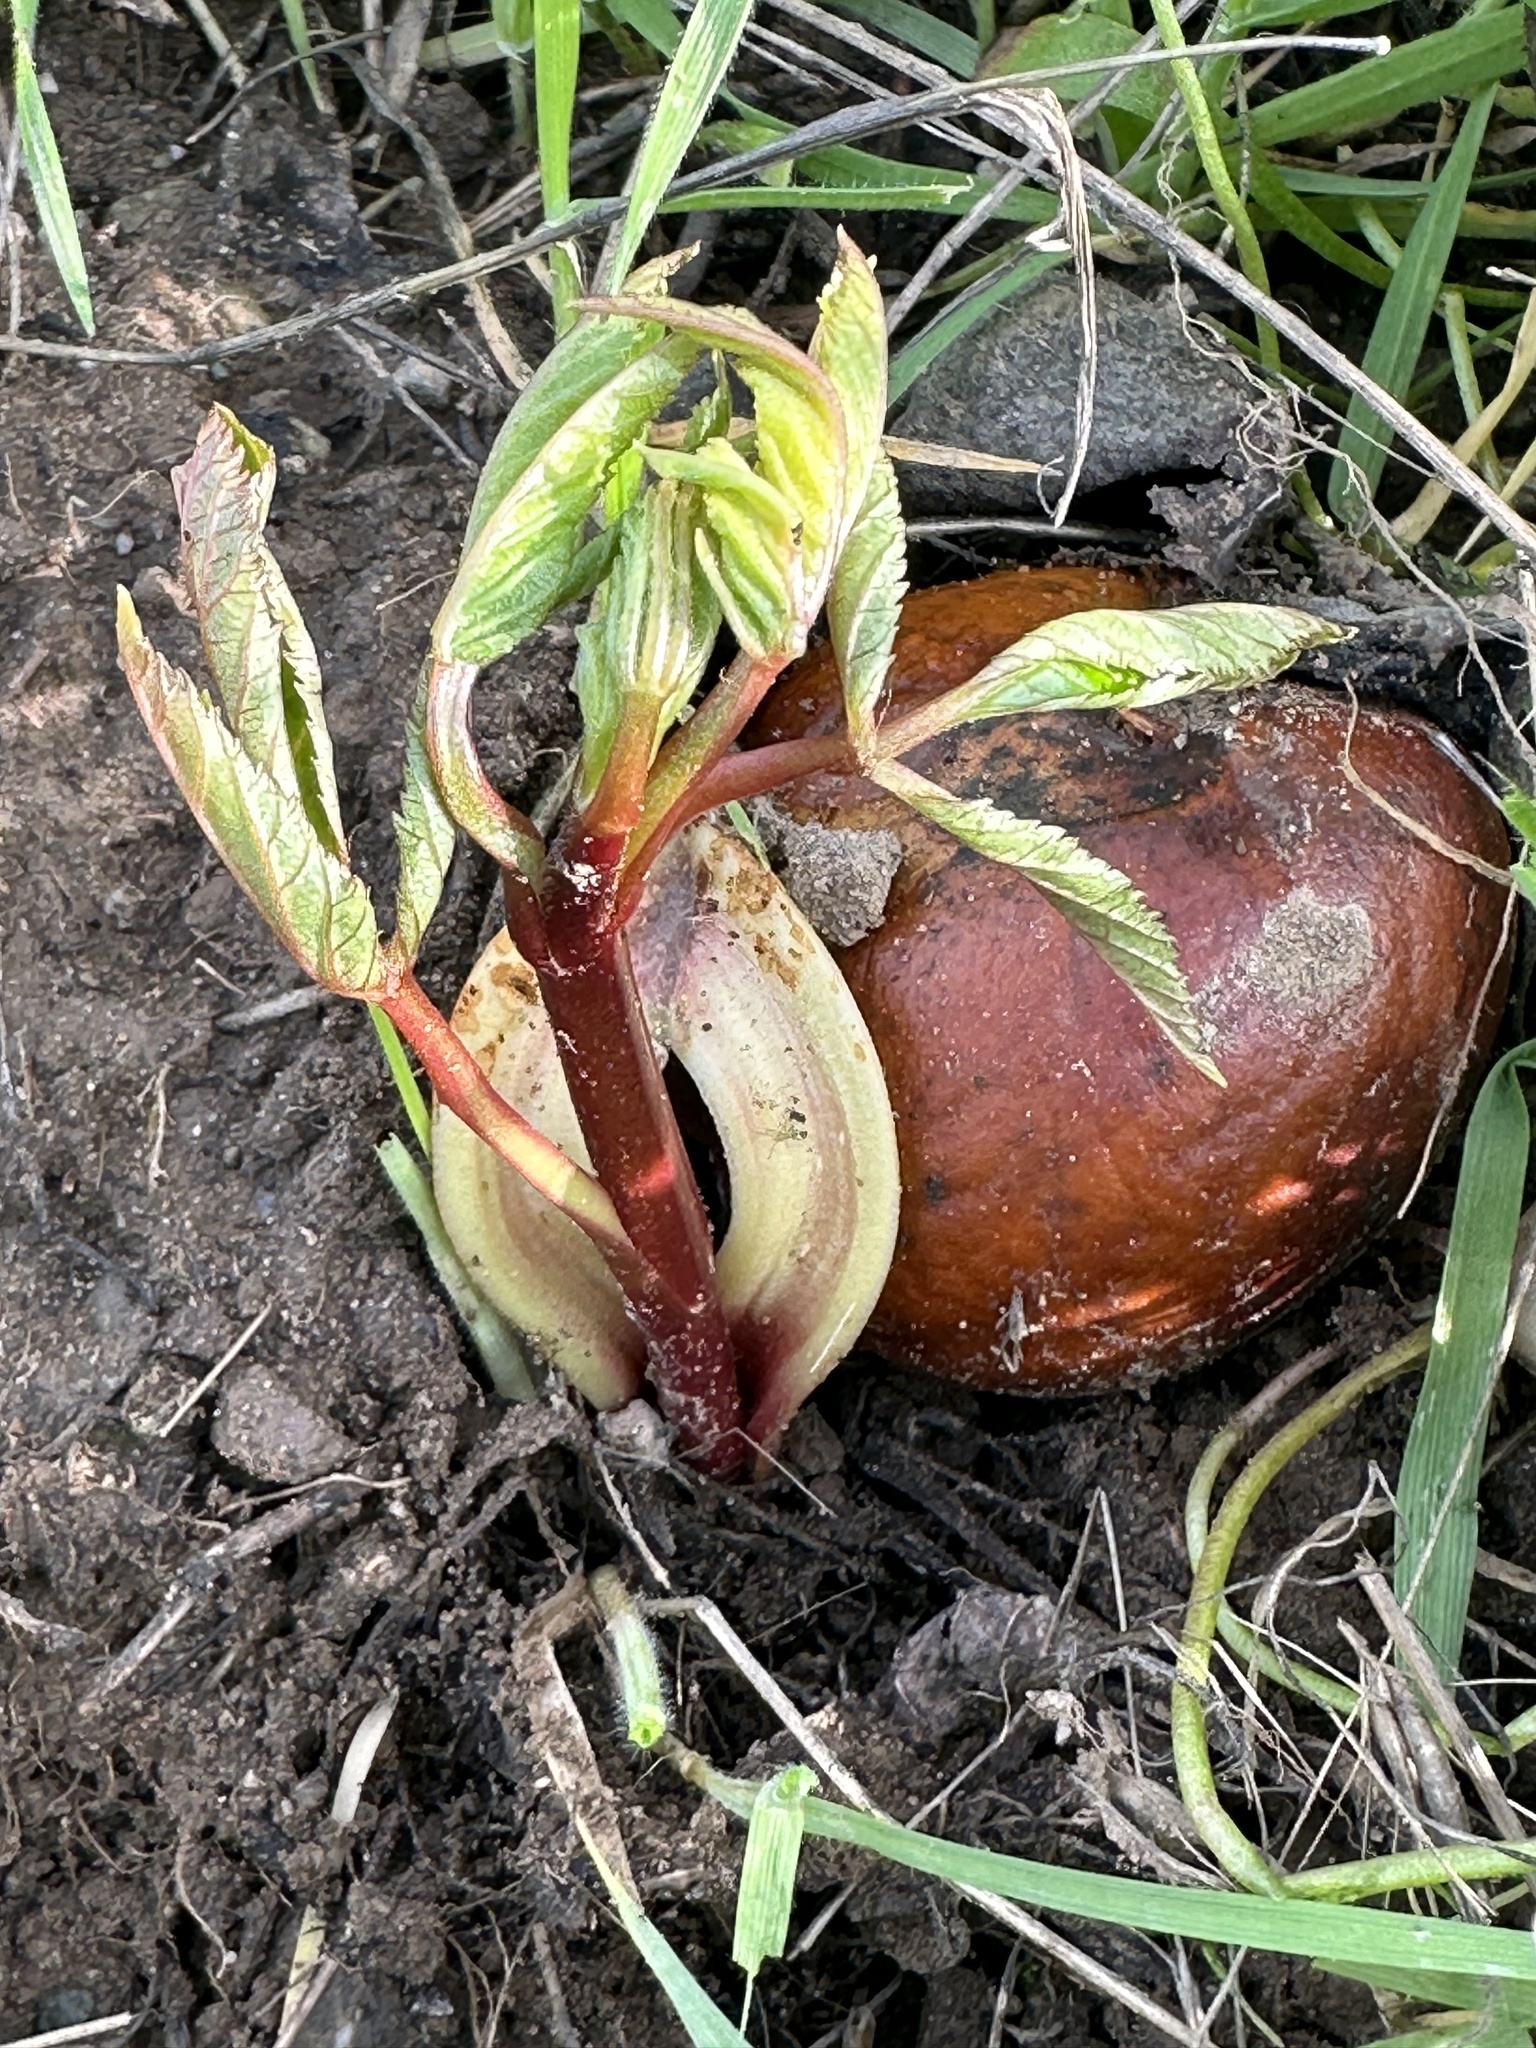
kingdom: Plantae
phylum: Tracheophyta
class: Magnoliopsida
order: Sapindales
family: Sapindaceae
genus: Aesculus
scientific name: Aesculus californica
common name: California buckeye
